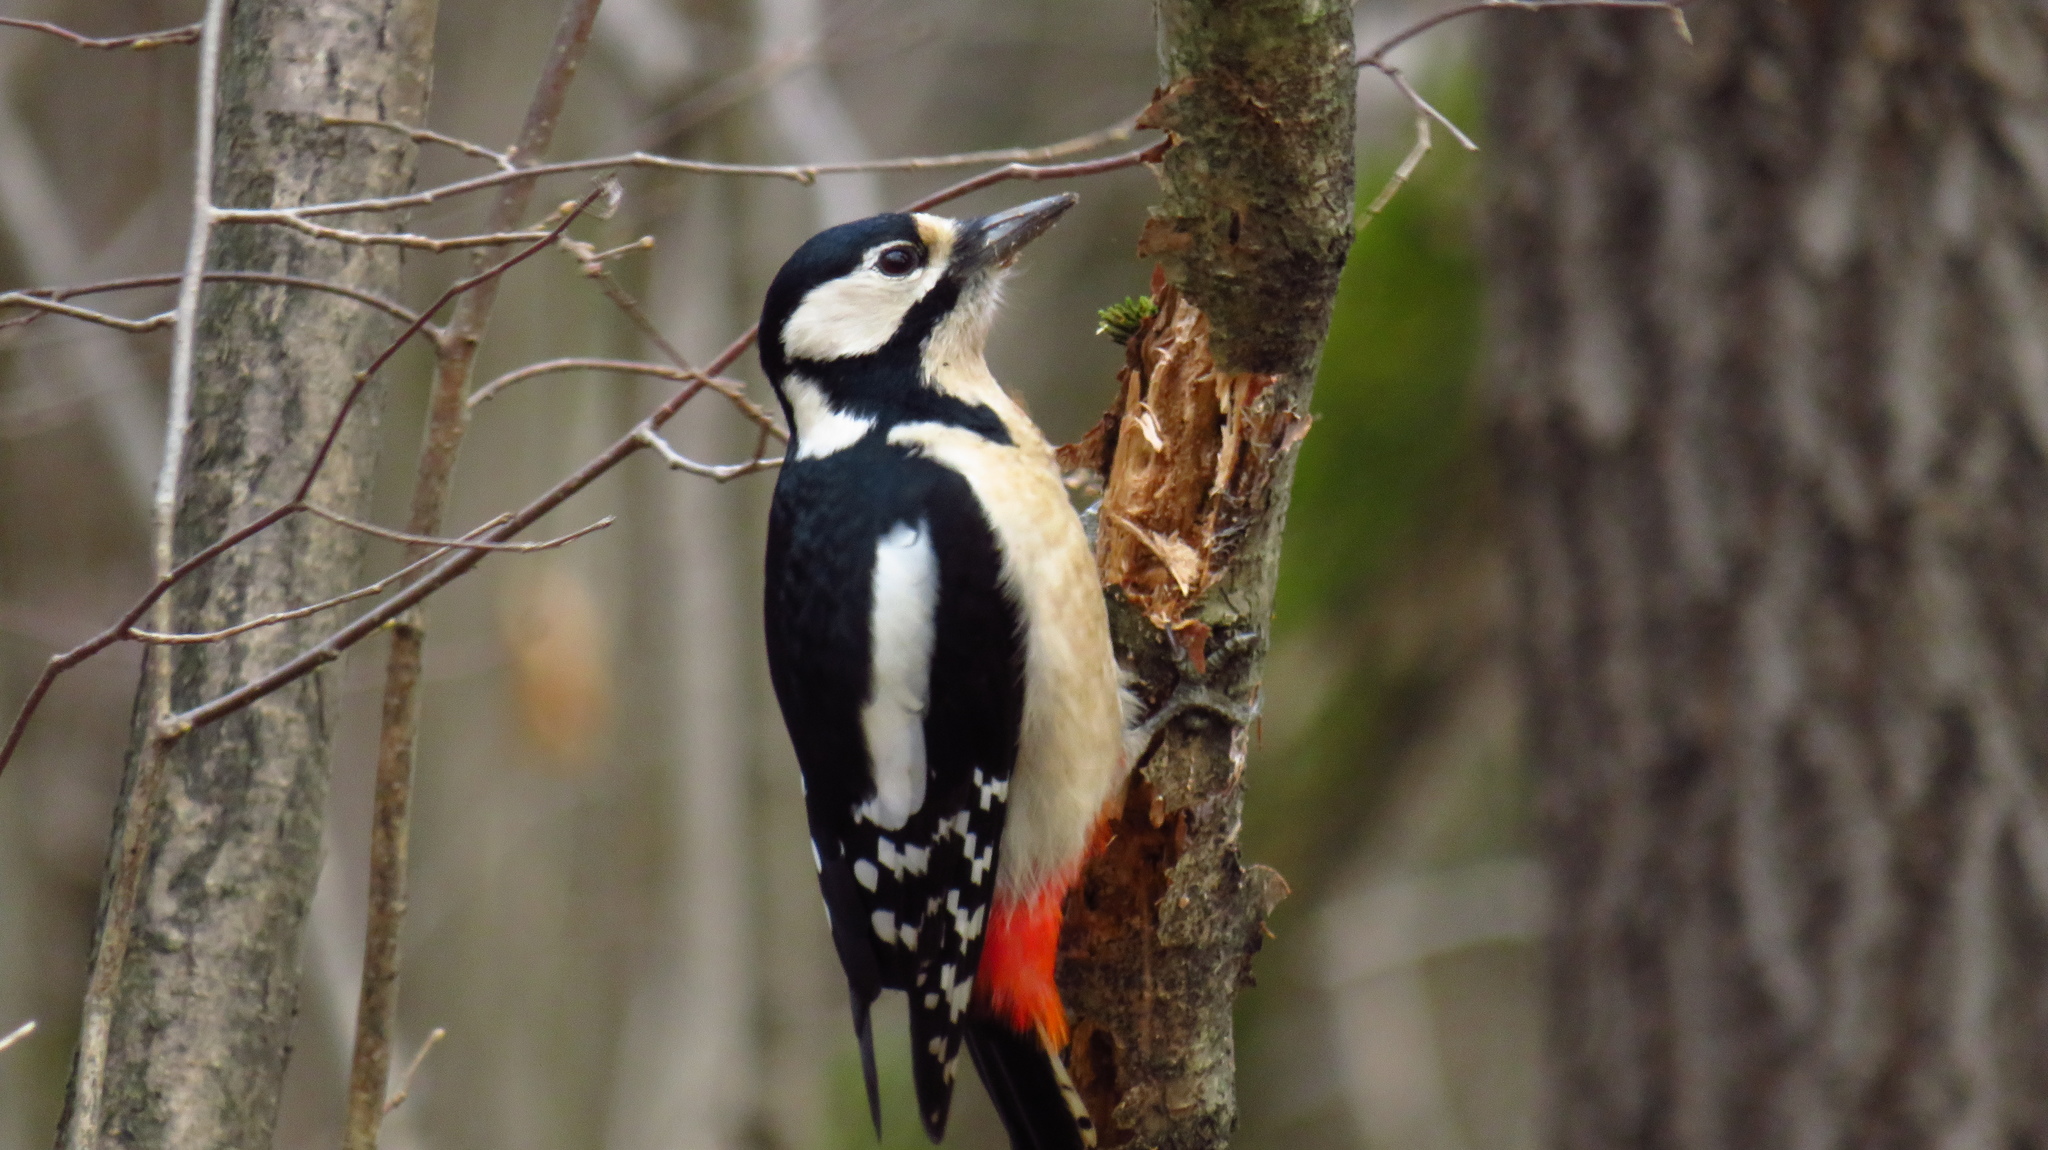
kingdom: Animalia
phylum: Chordata
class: Aves
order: Piciformes
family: Picidae
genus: Dendrocopos
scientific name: Dendrocopos major
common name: Great spotted woodpecker
